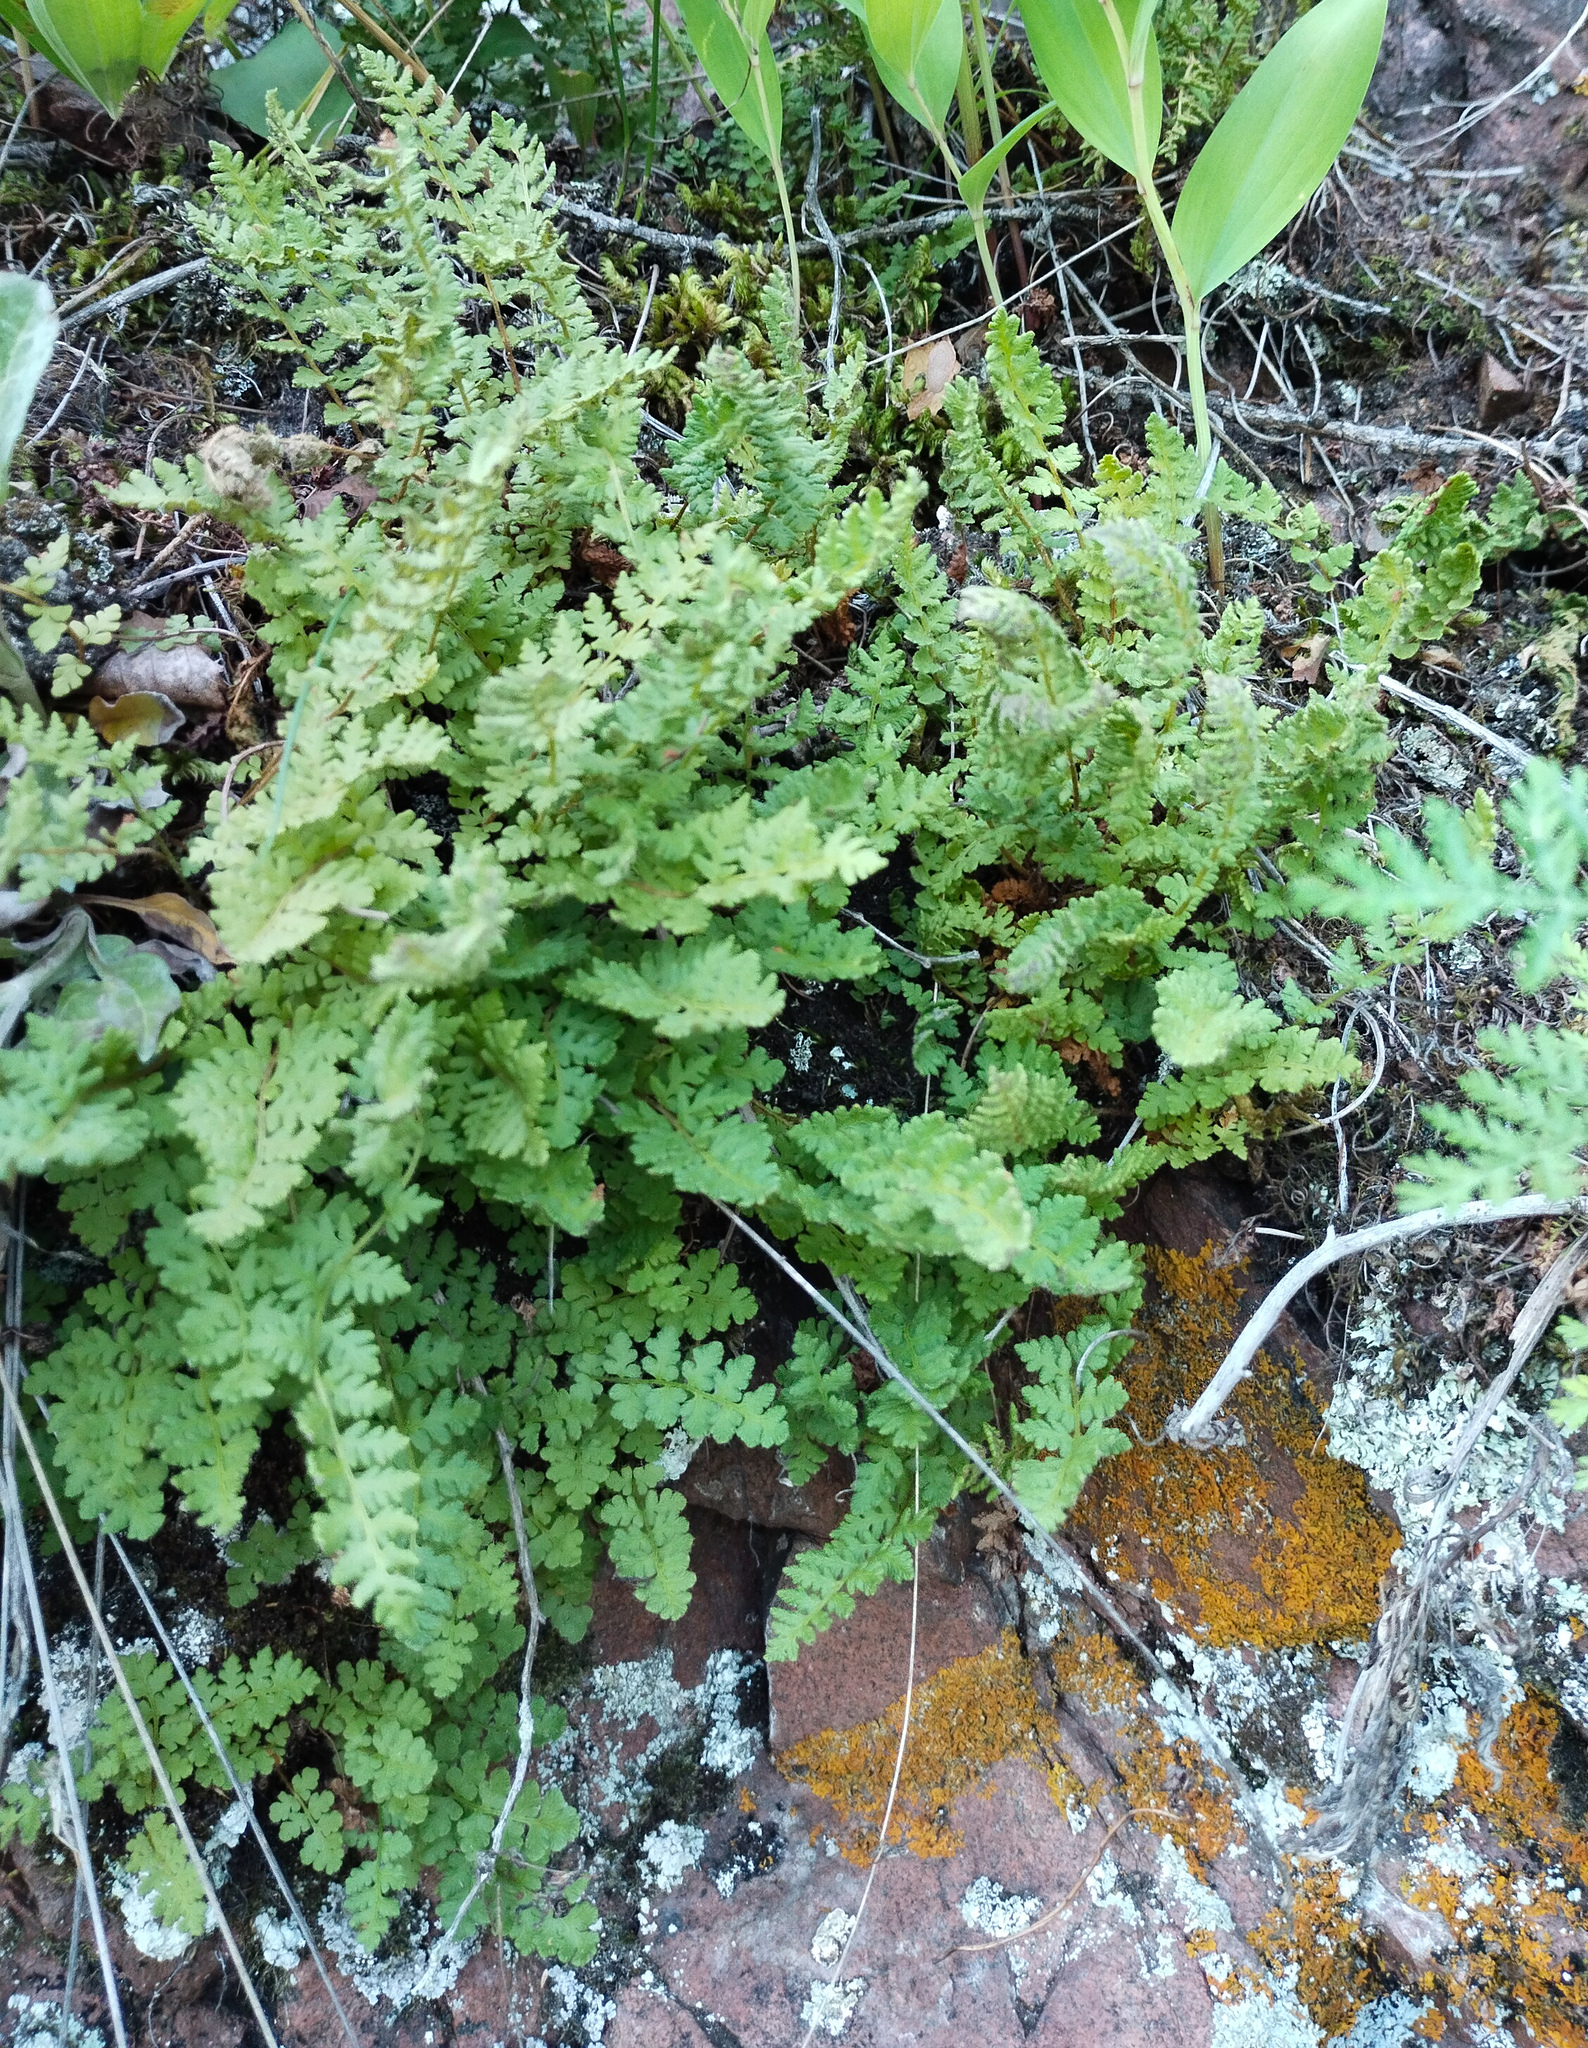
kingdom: Plantae
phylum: Tracheophyta
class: Polypodiopsida
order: Polypodiales
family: Woodsiaceae
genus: Woodsia
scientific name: Woodsia ilvensis
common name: Fragrant woodsia
